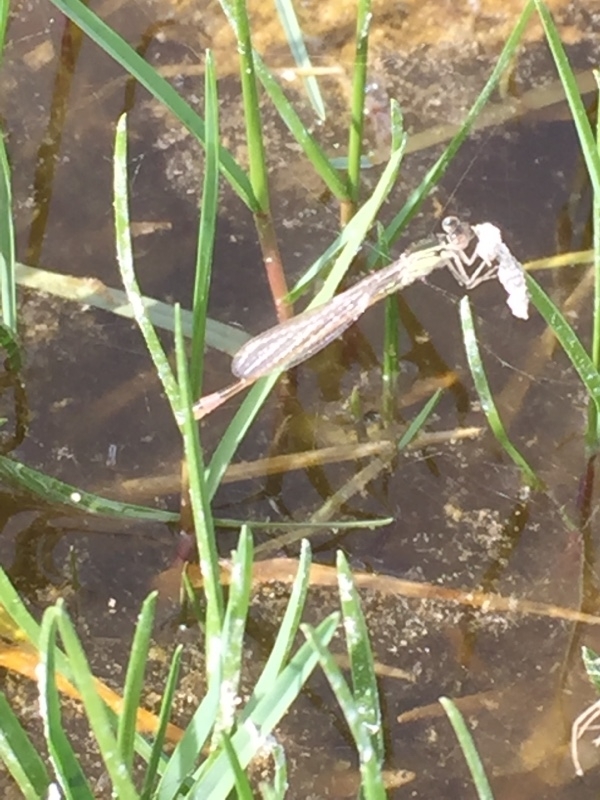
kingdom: Animalia
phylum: Arthropoda
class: Insecta
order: Odonata
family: Coenagrionidae
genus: Ischnura
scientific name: Ischnura saharensis
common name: Sahara bluetail
